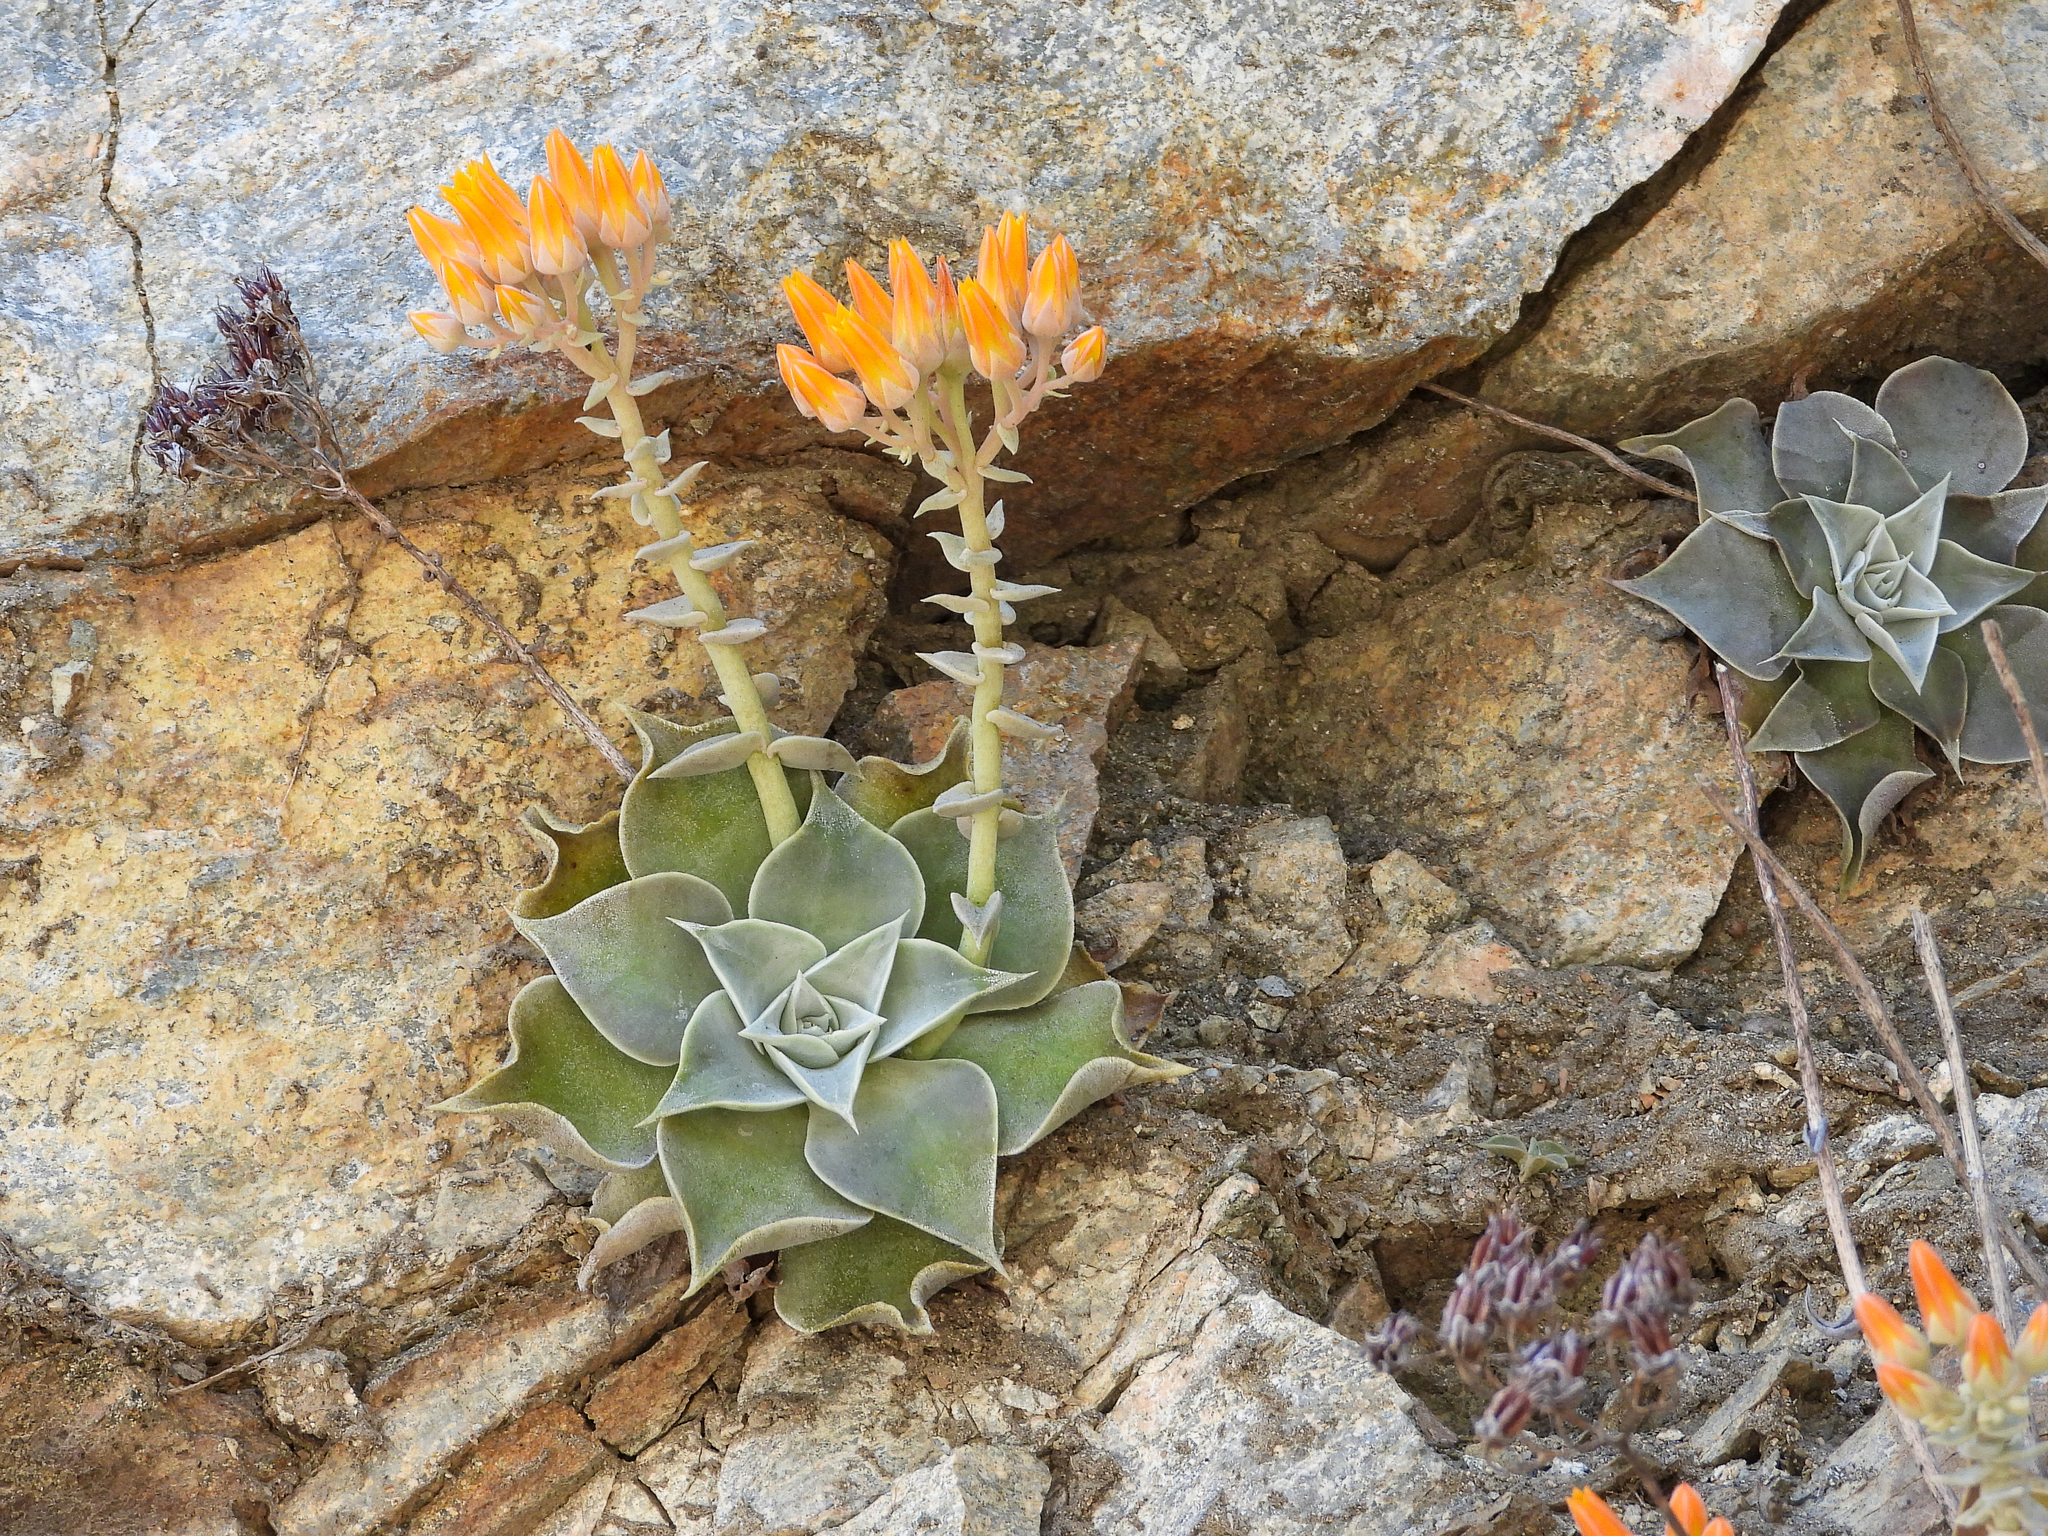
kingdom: Plantae
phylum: Tracheophyta
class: Magnoliopsida
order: Saxifragales
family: Crassulaceae
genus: Dudleya
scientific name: Dudleya cymosa
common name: Canyon dudleya
